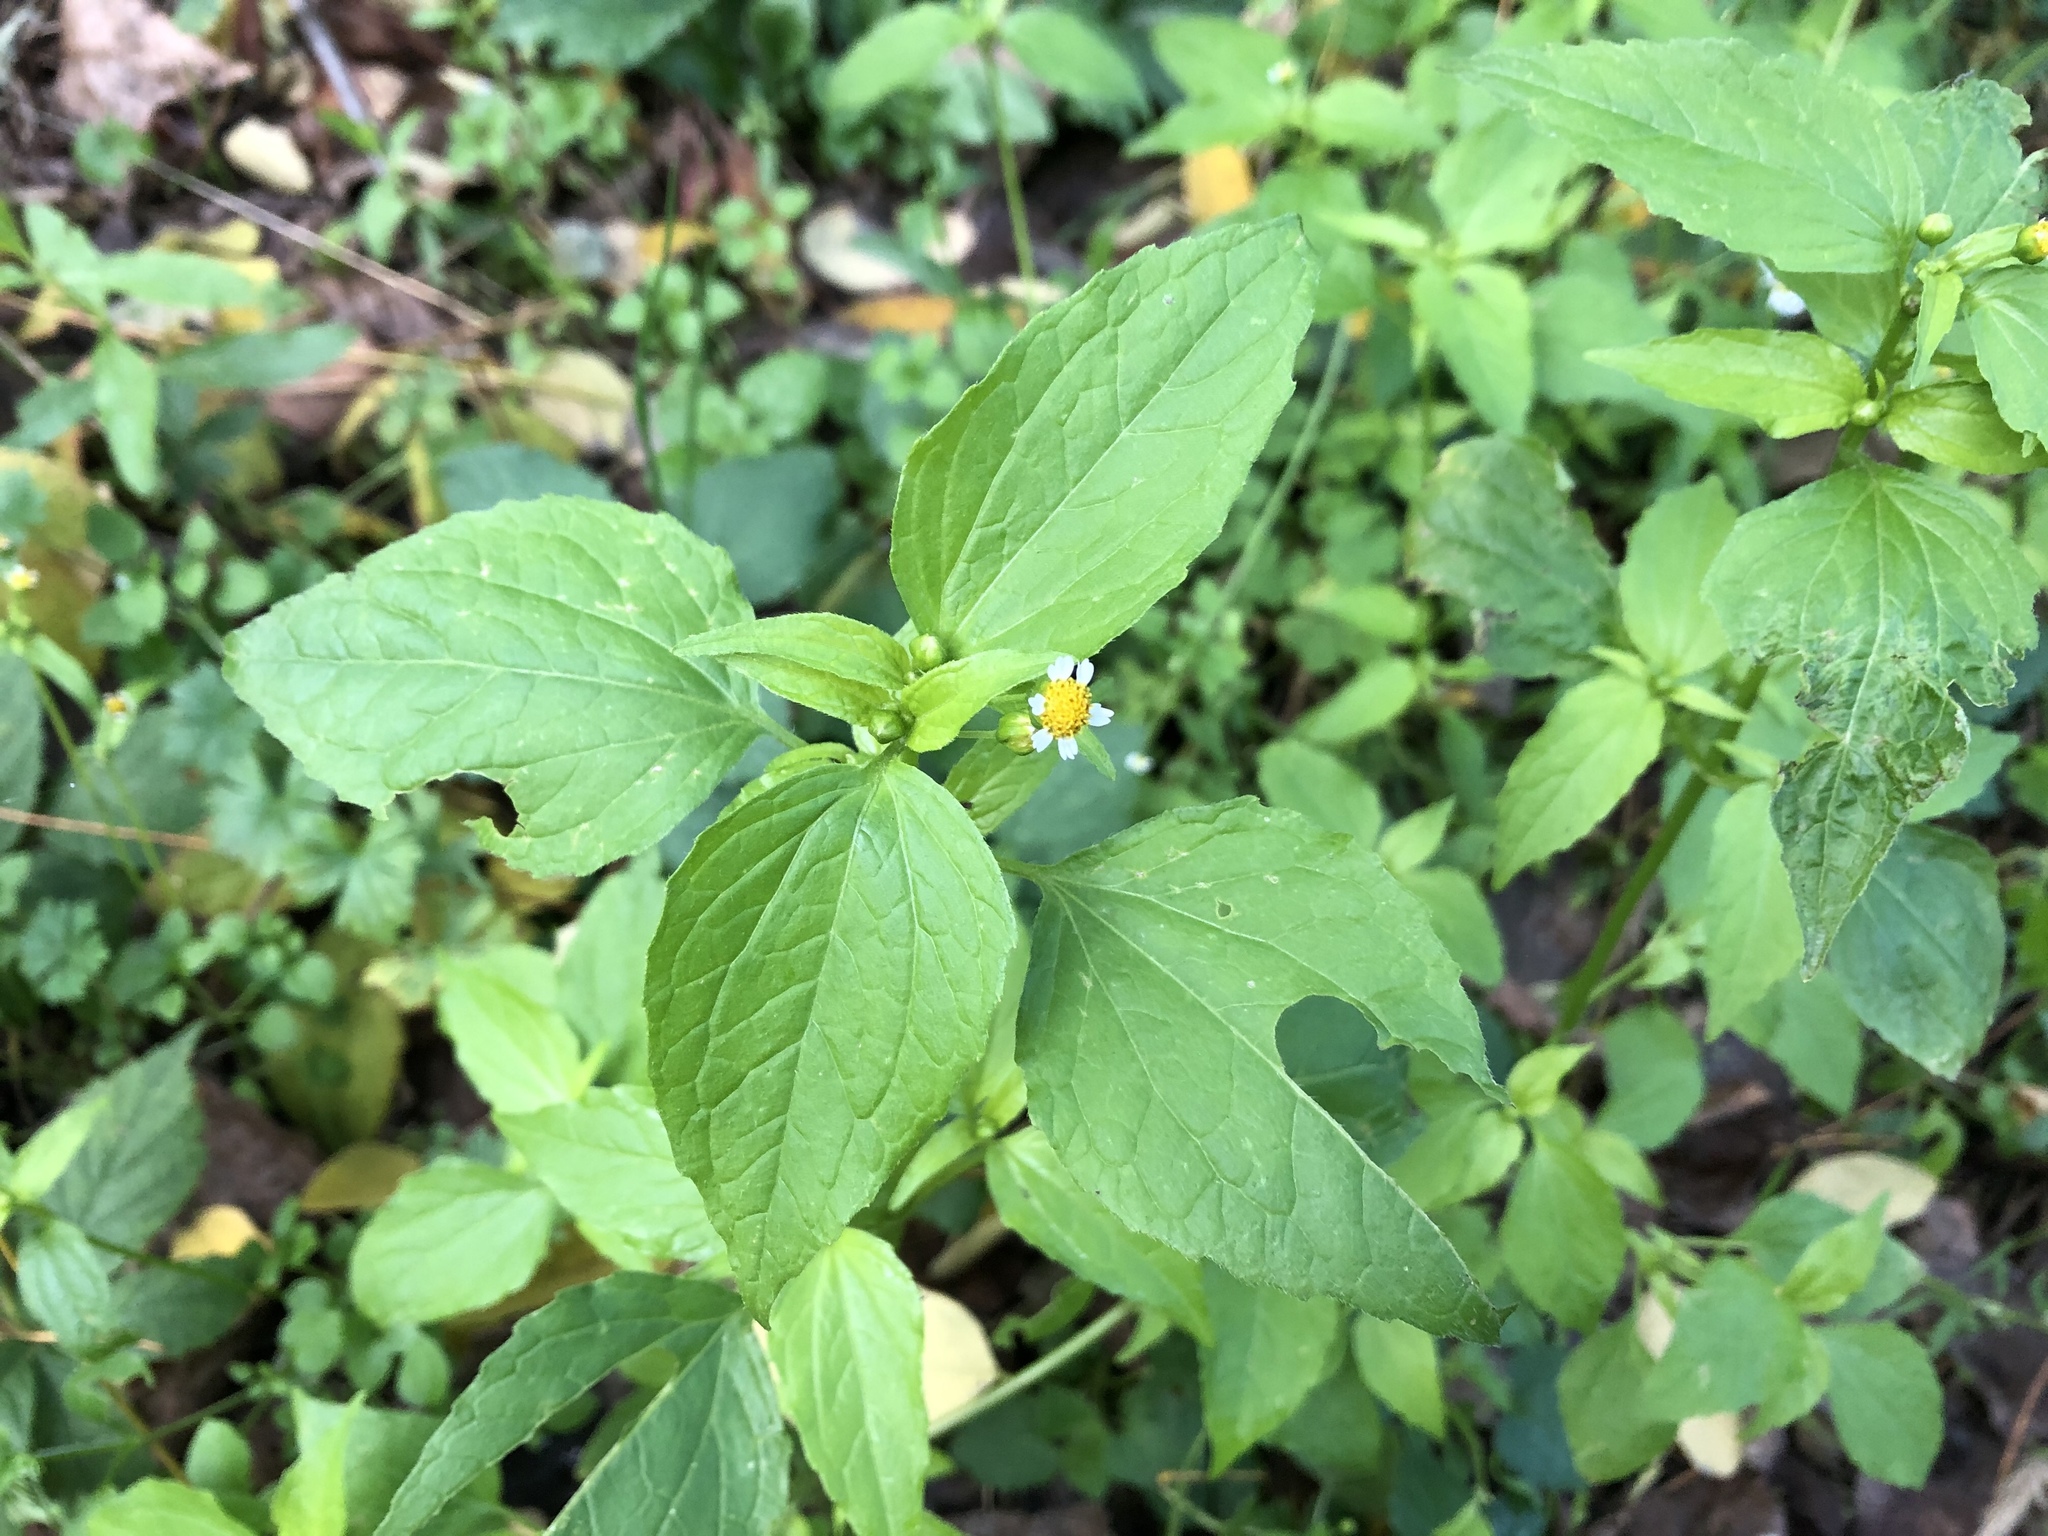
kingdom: Plantae
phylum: Tracheophyta
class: Magnoliopsida
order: Asterales
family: Asteraceae
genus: Galinsoga
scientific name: Galinsoga parviflora
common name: Gallant soldier
